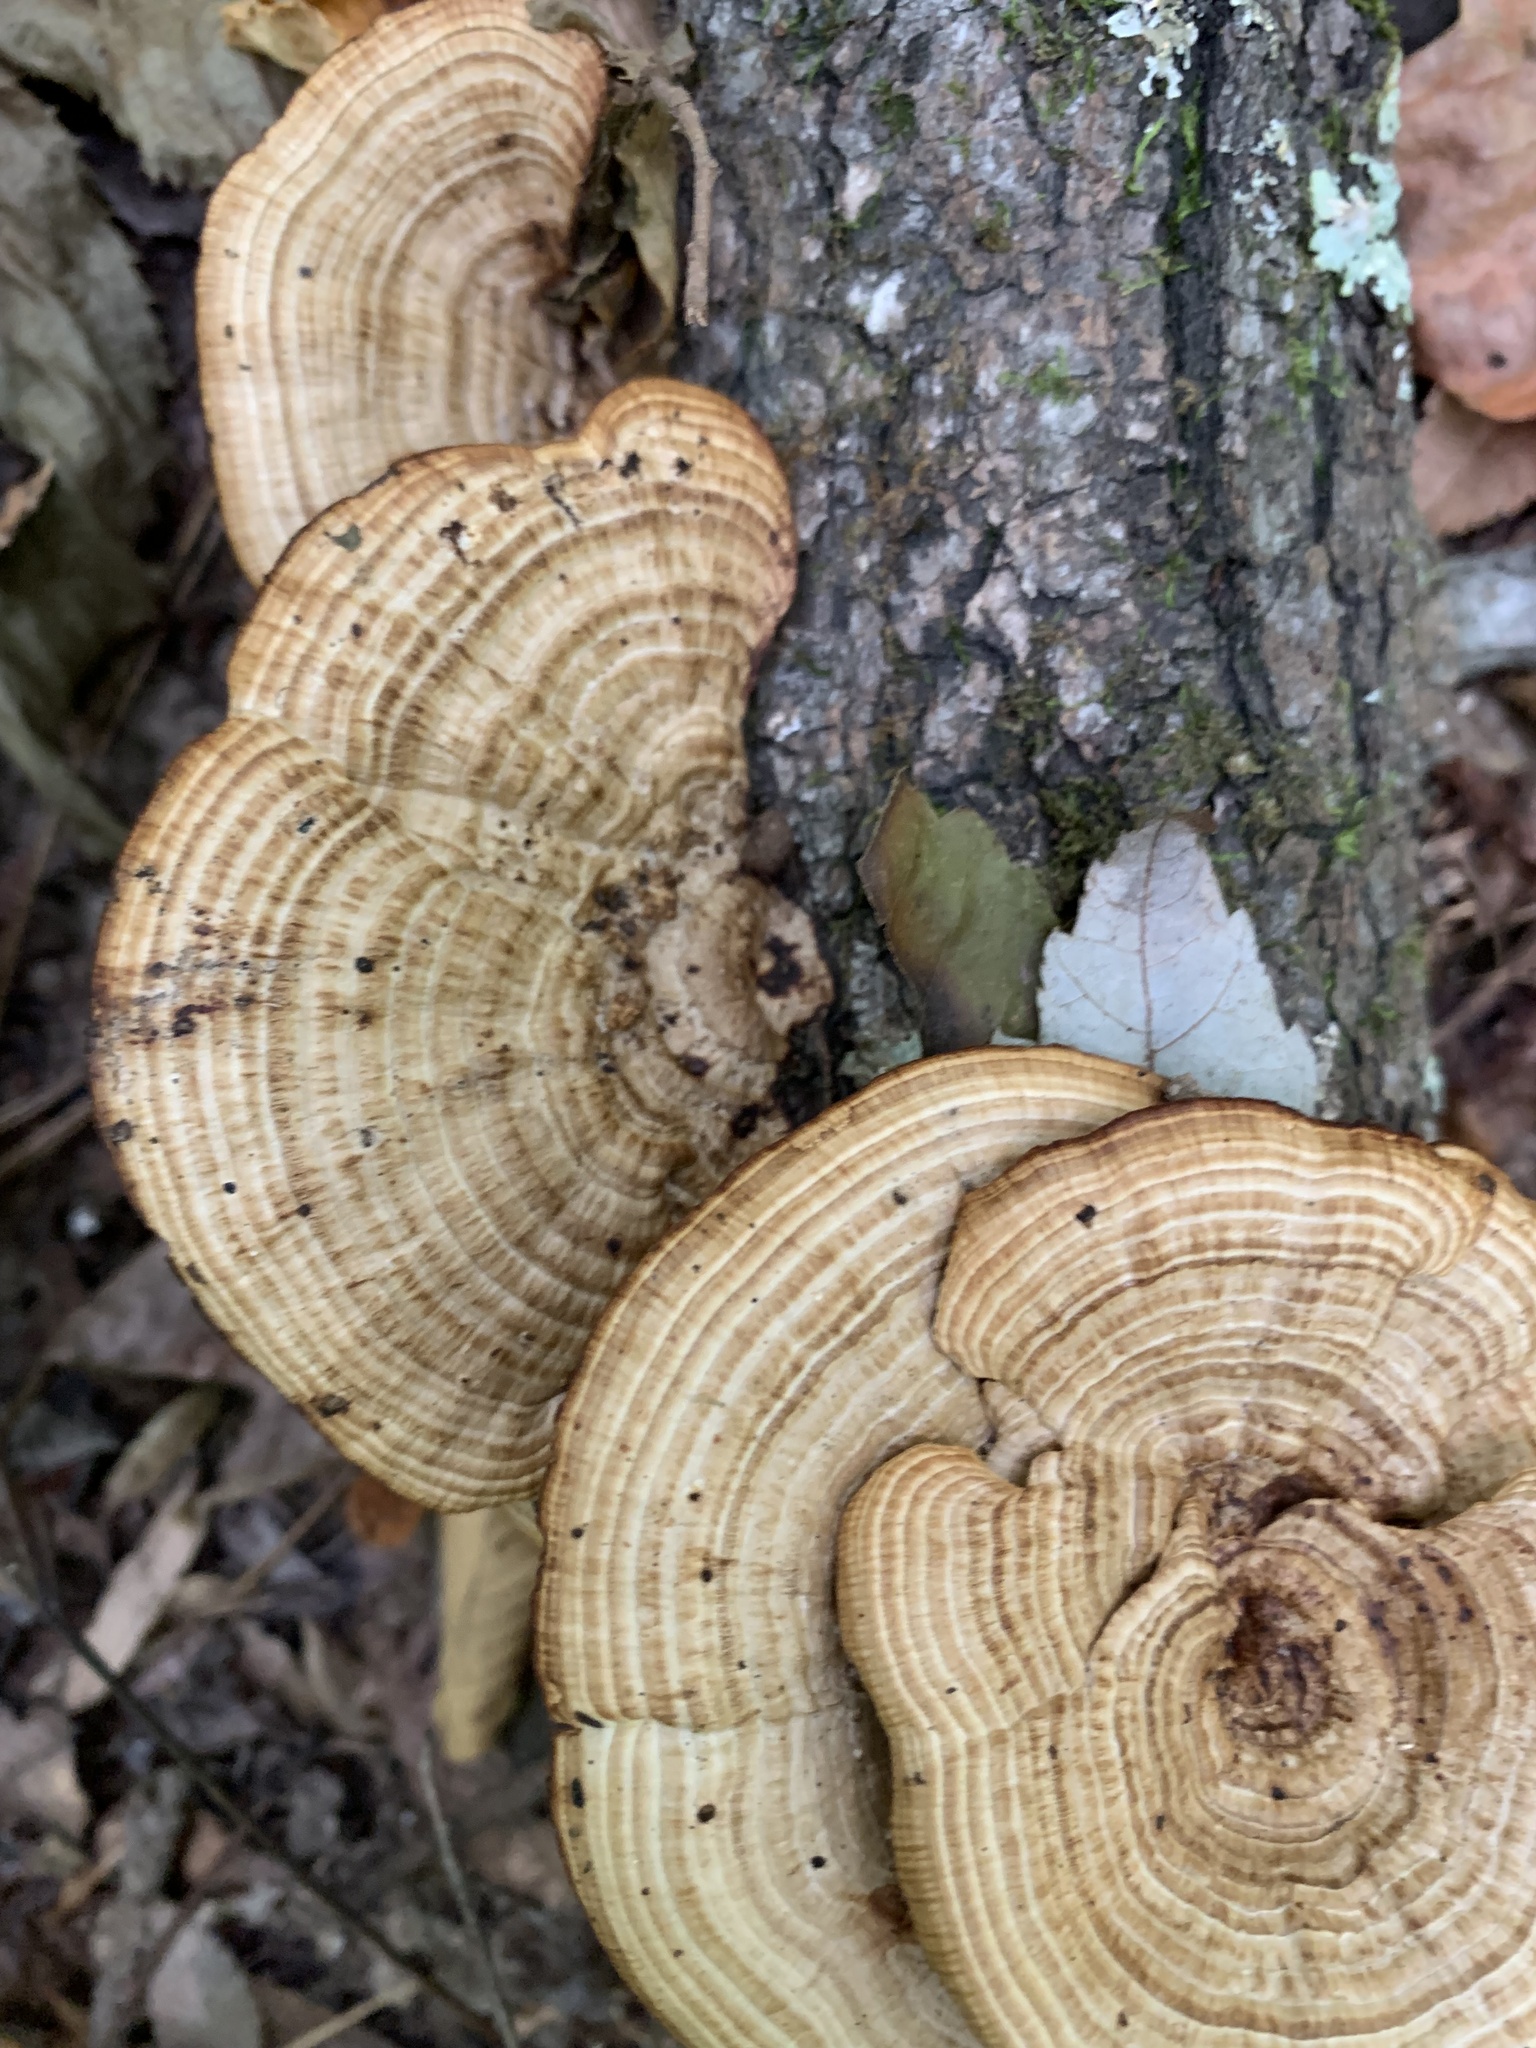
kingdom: Fungi
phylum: Basidiomycota
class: Agaricomycetes
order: Polyporales
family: Polyporaceae
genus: Daedaleopsis
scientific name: Daedaleopsis confragosa
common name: Blushing bracket
